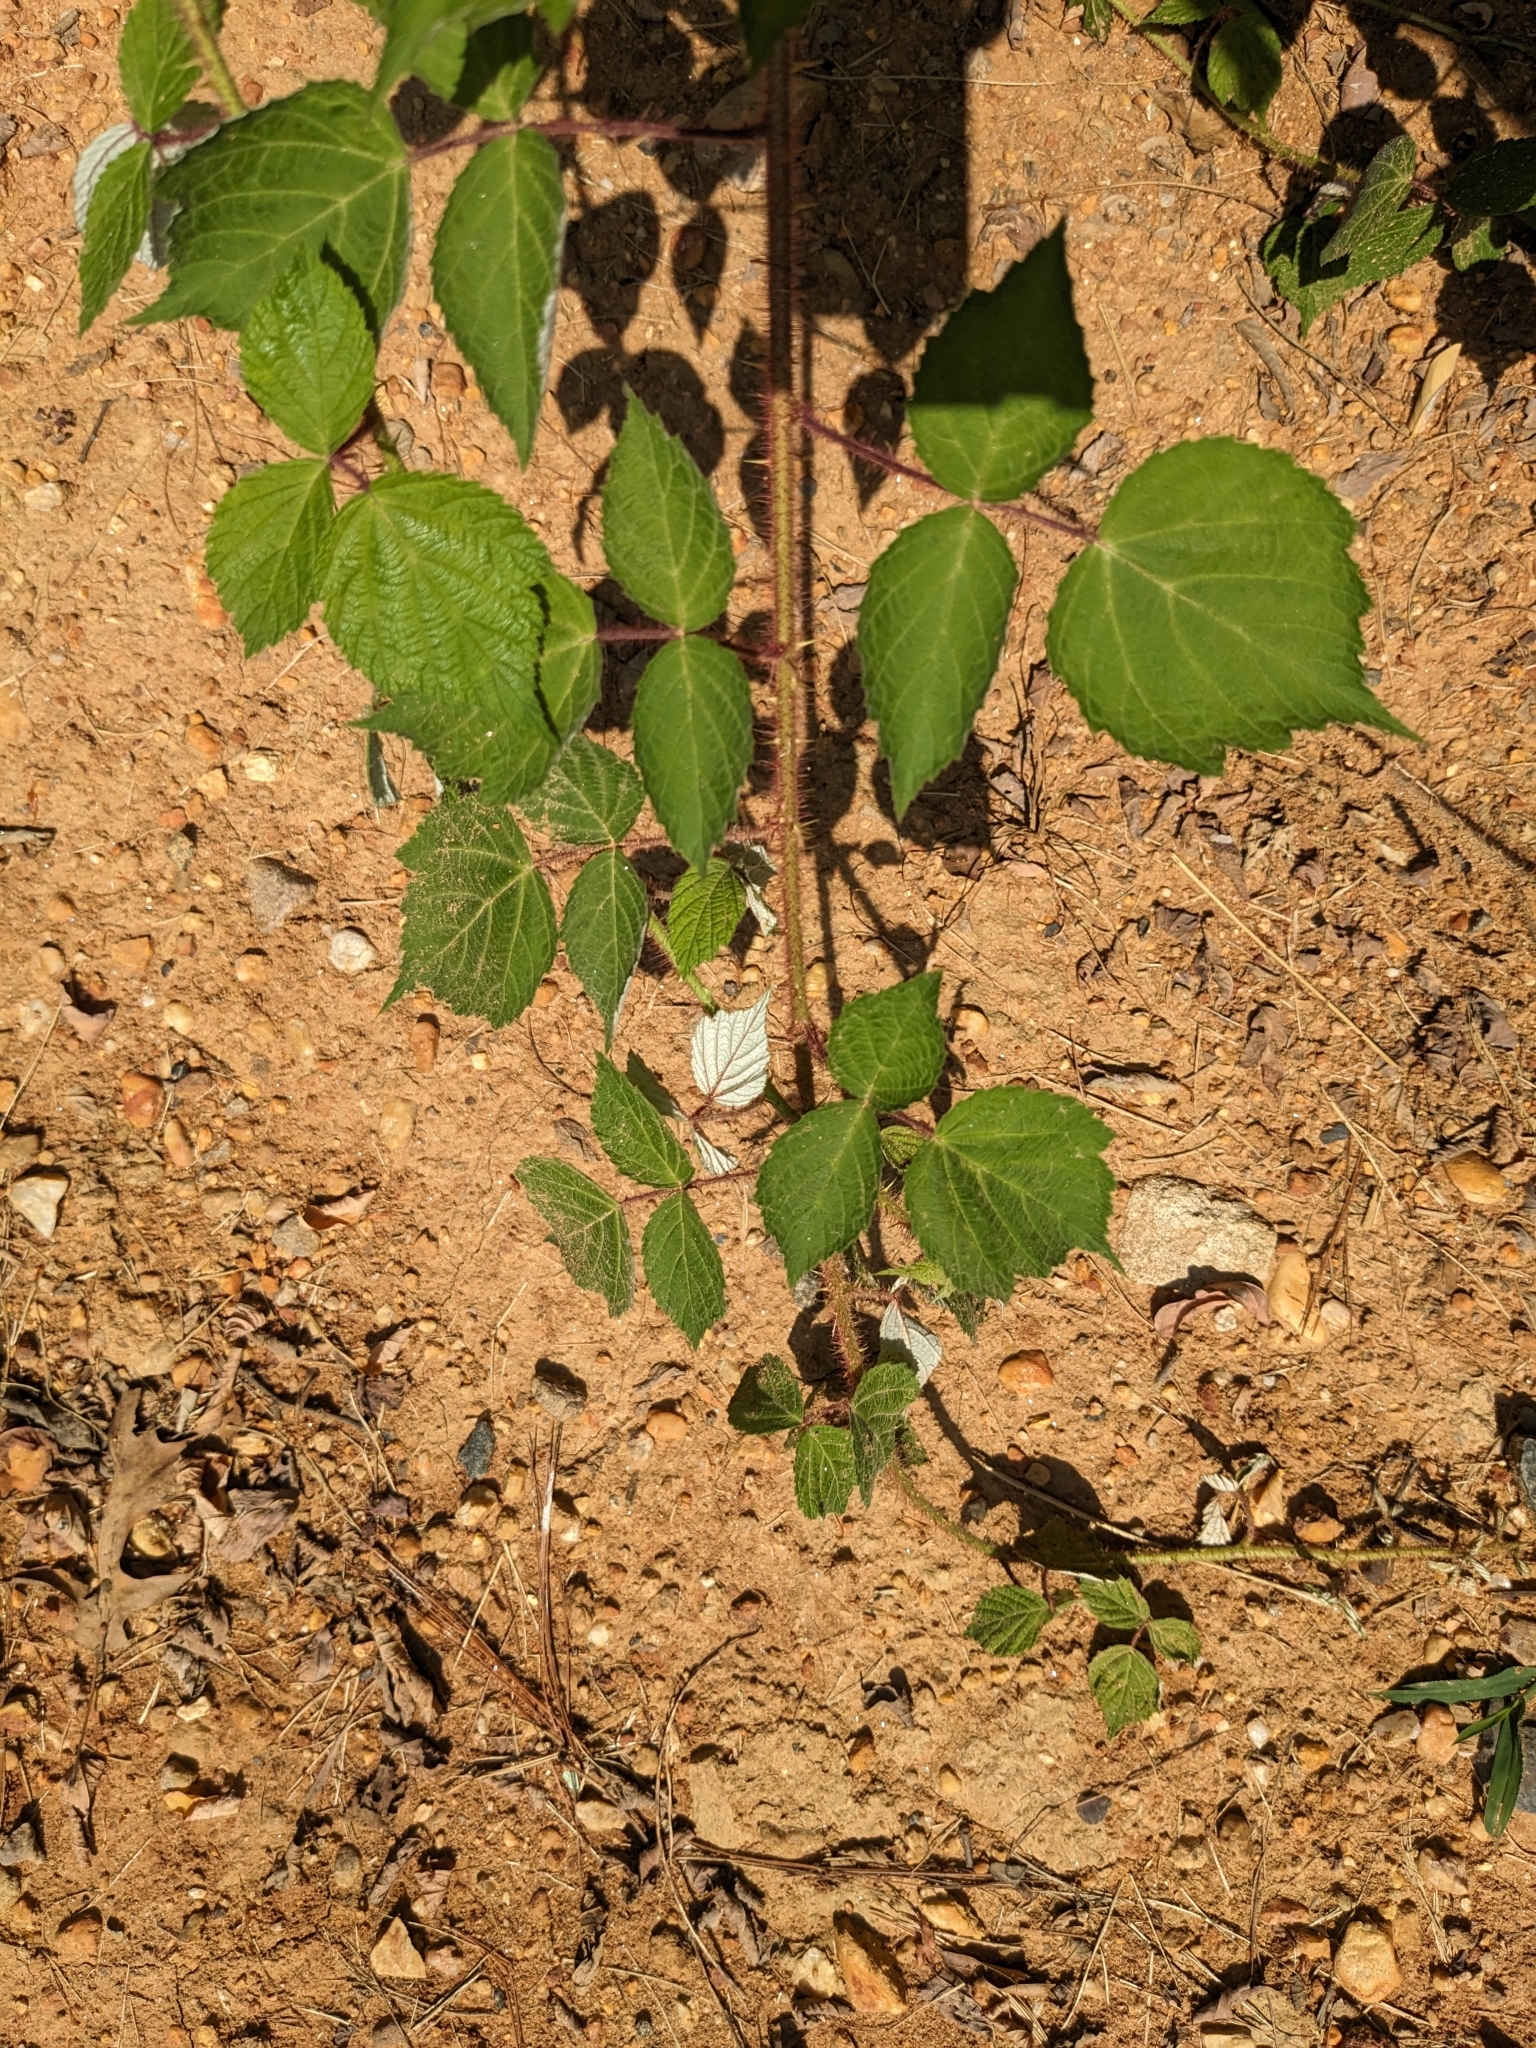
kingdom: Plantae
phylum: Tracheophyta
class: Magnoliopsida
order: Rosales
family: Rosaceae
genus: Rubus
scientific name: Rubus phoenicolasius
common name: Japanese wineberry
